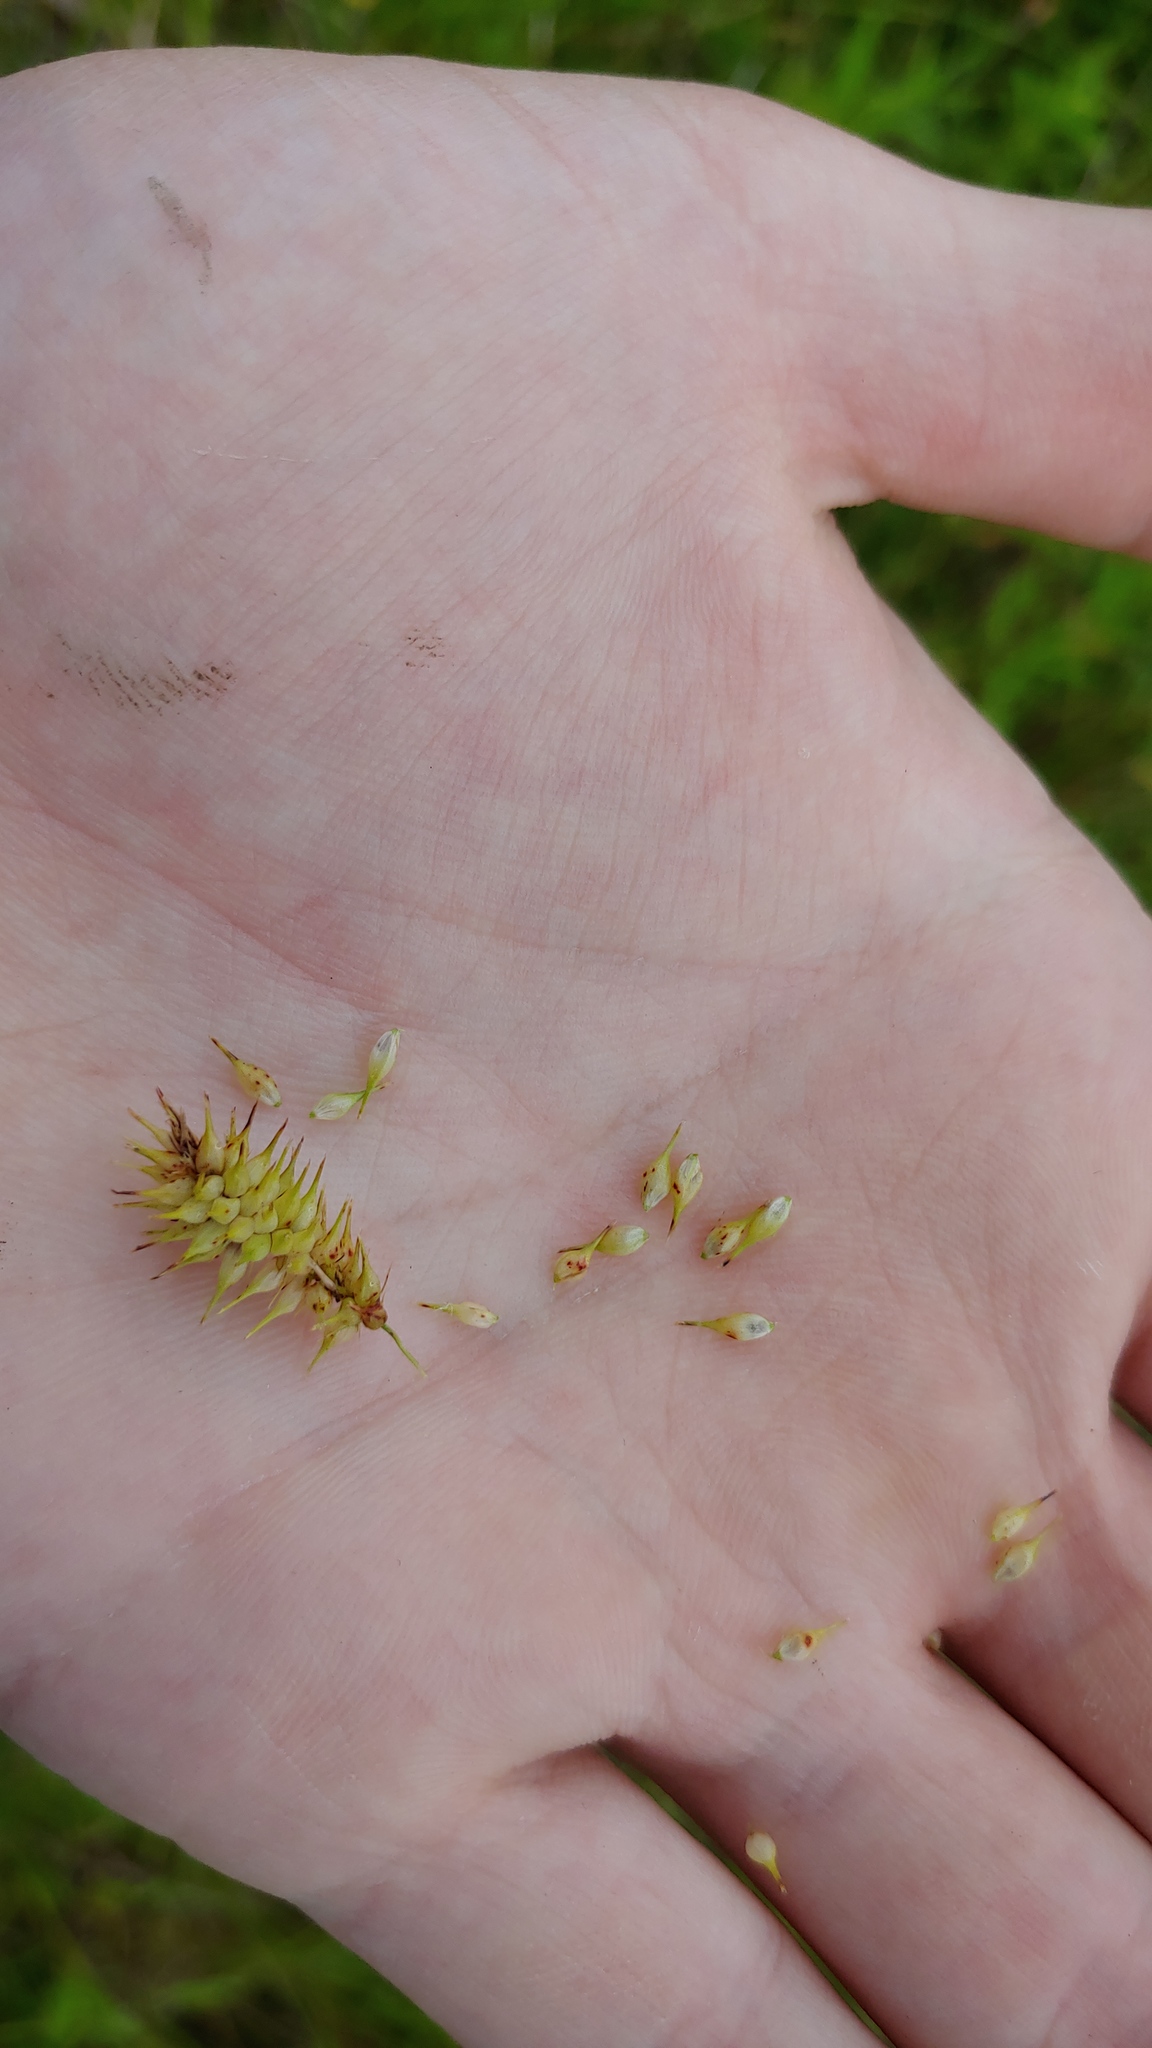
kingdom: Plantae
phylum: Tracheophyta
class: Liliopsida
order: Poales
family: Cyperaceae
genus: Carex
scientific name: Carex hystericina
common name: Bottlebrush sedge
